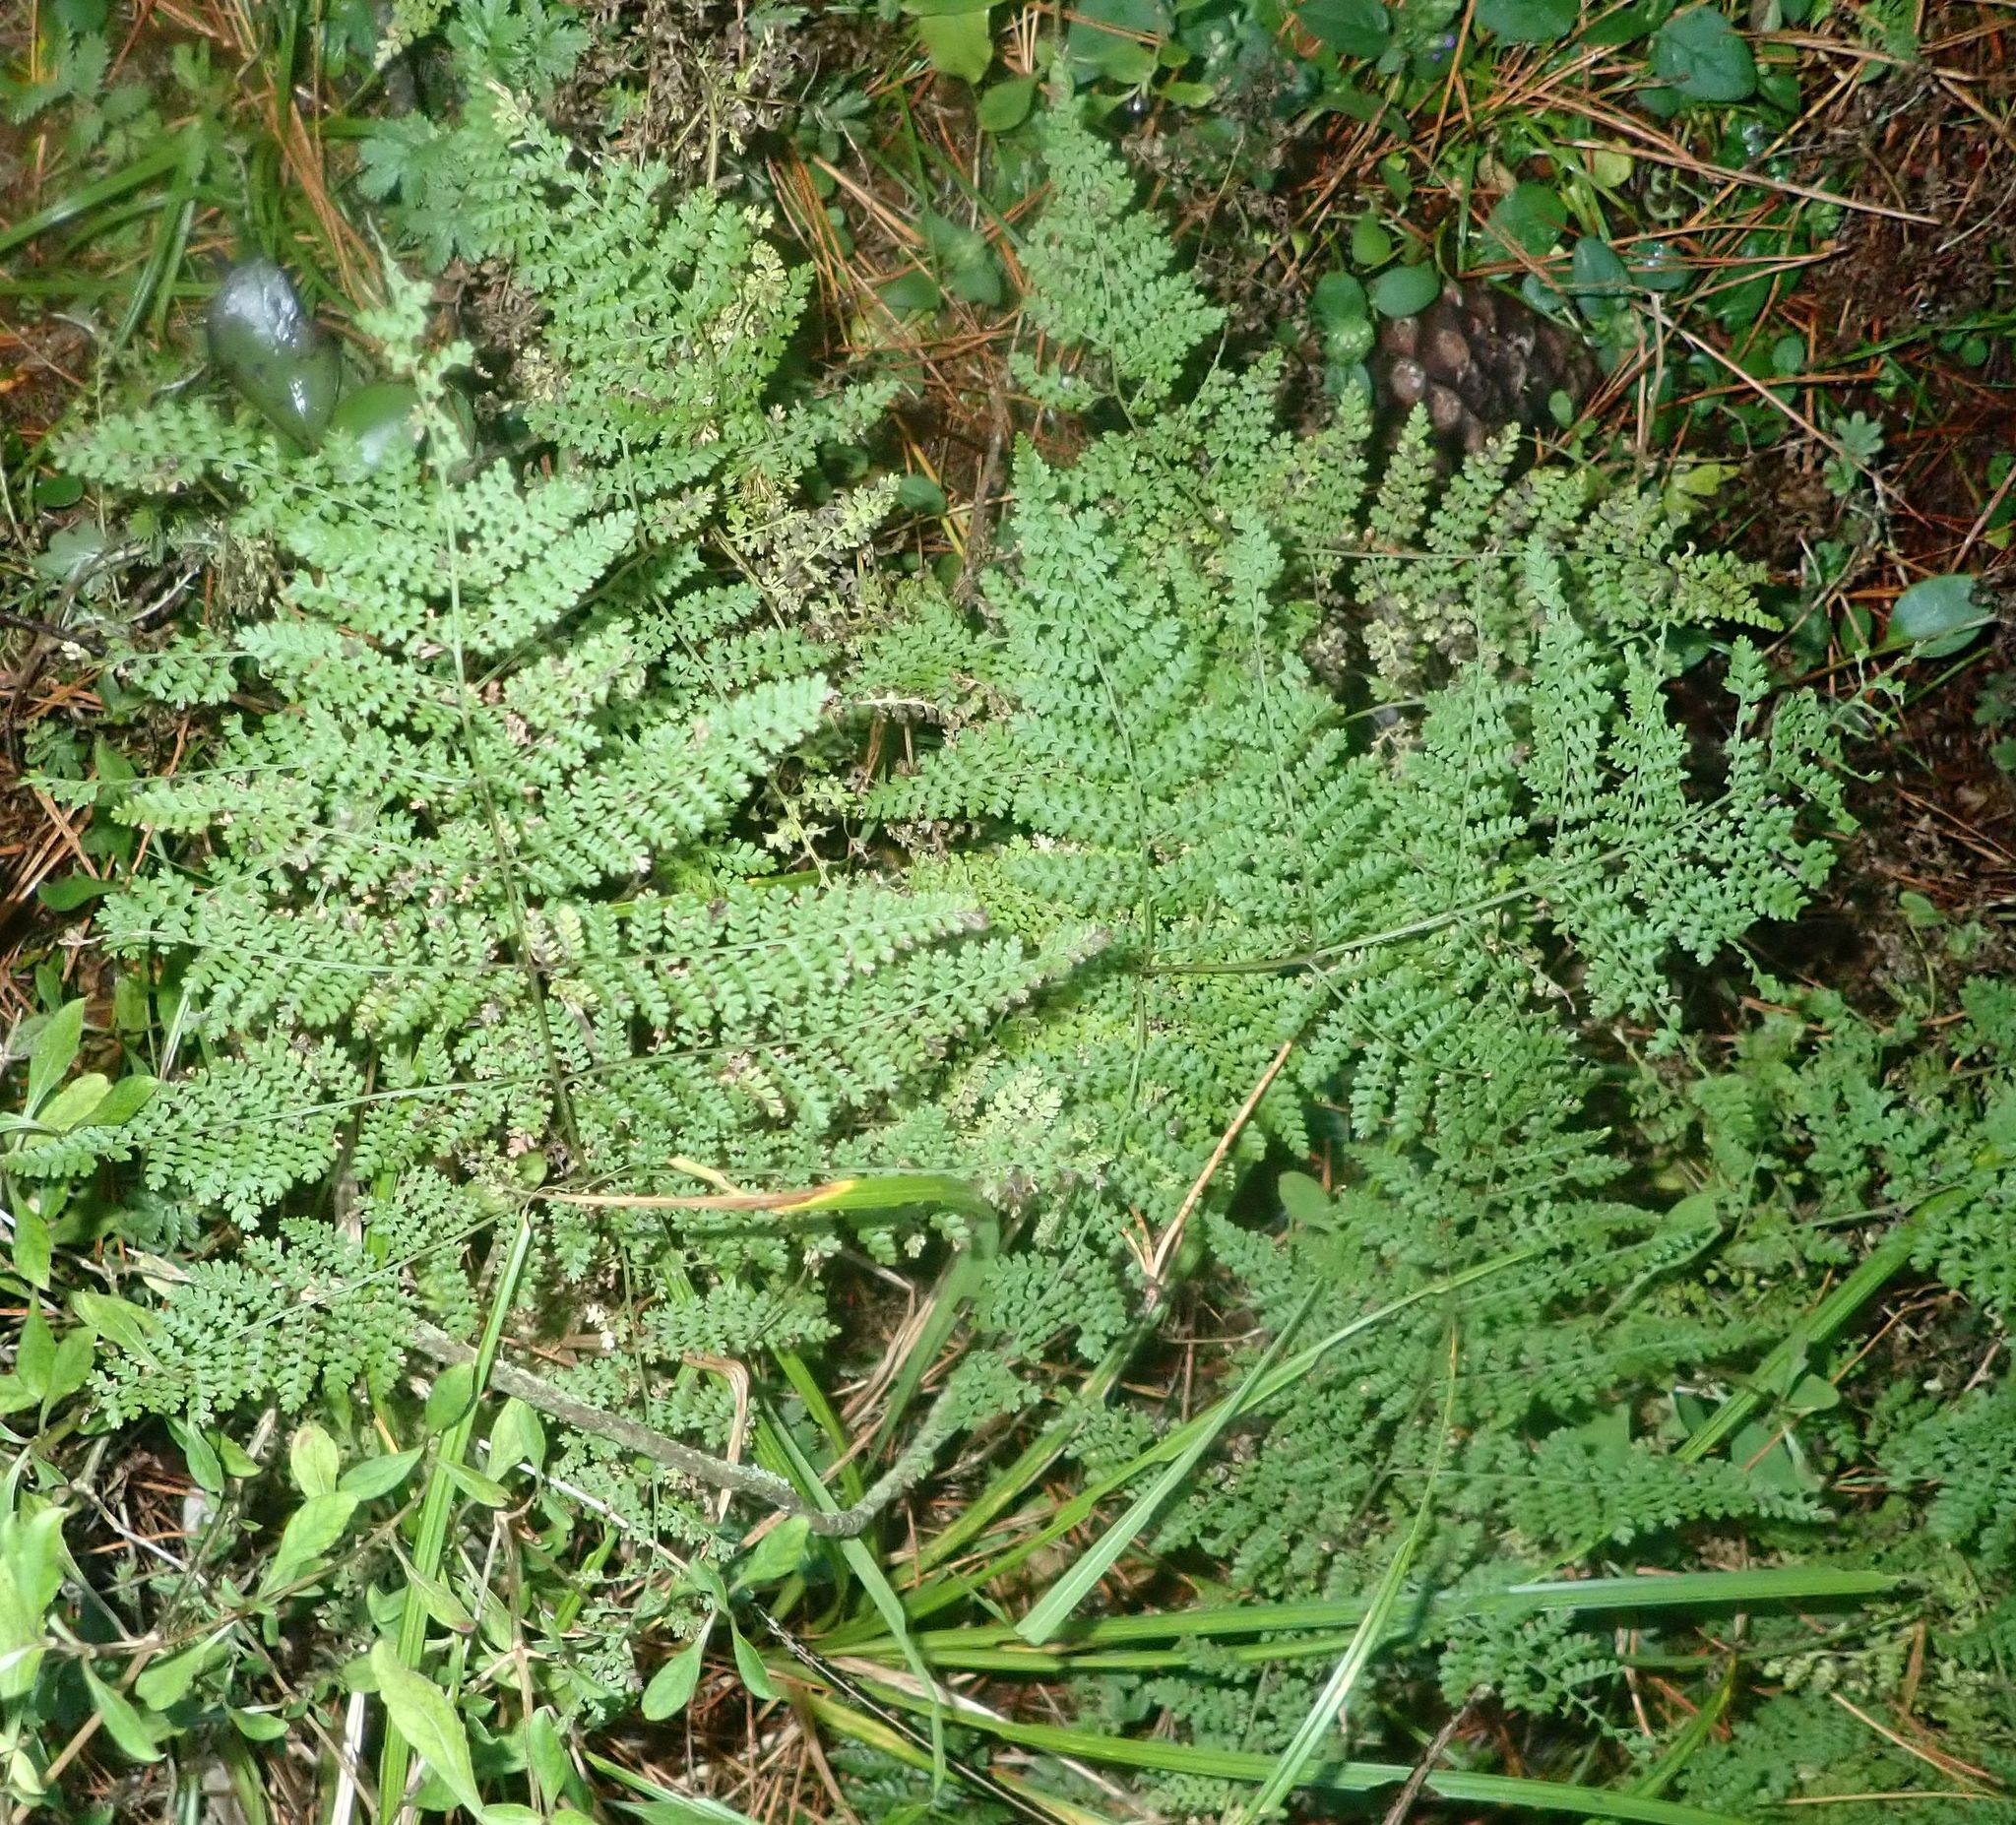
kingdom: Plantae
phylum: Tracheophyta
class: Polypodiopsida
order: Polypodiales
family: Dennstaedtiaceae
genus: Hypolepis
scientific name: Hypolepis millefolium
